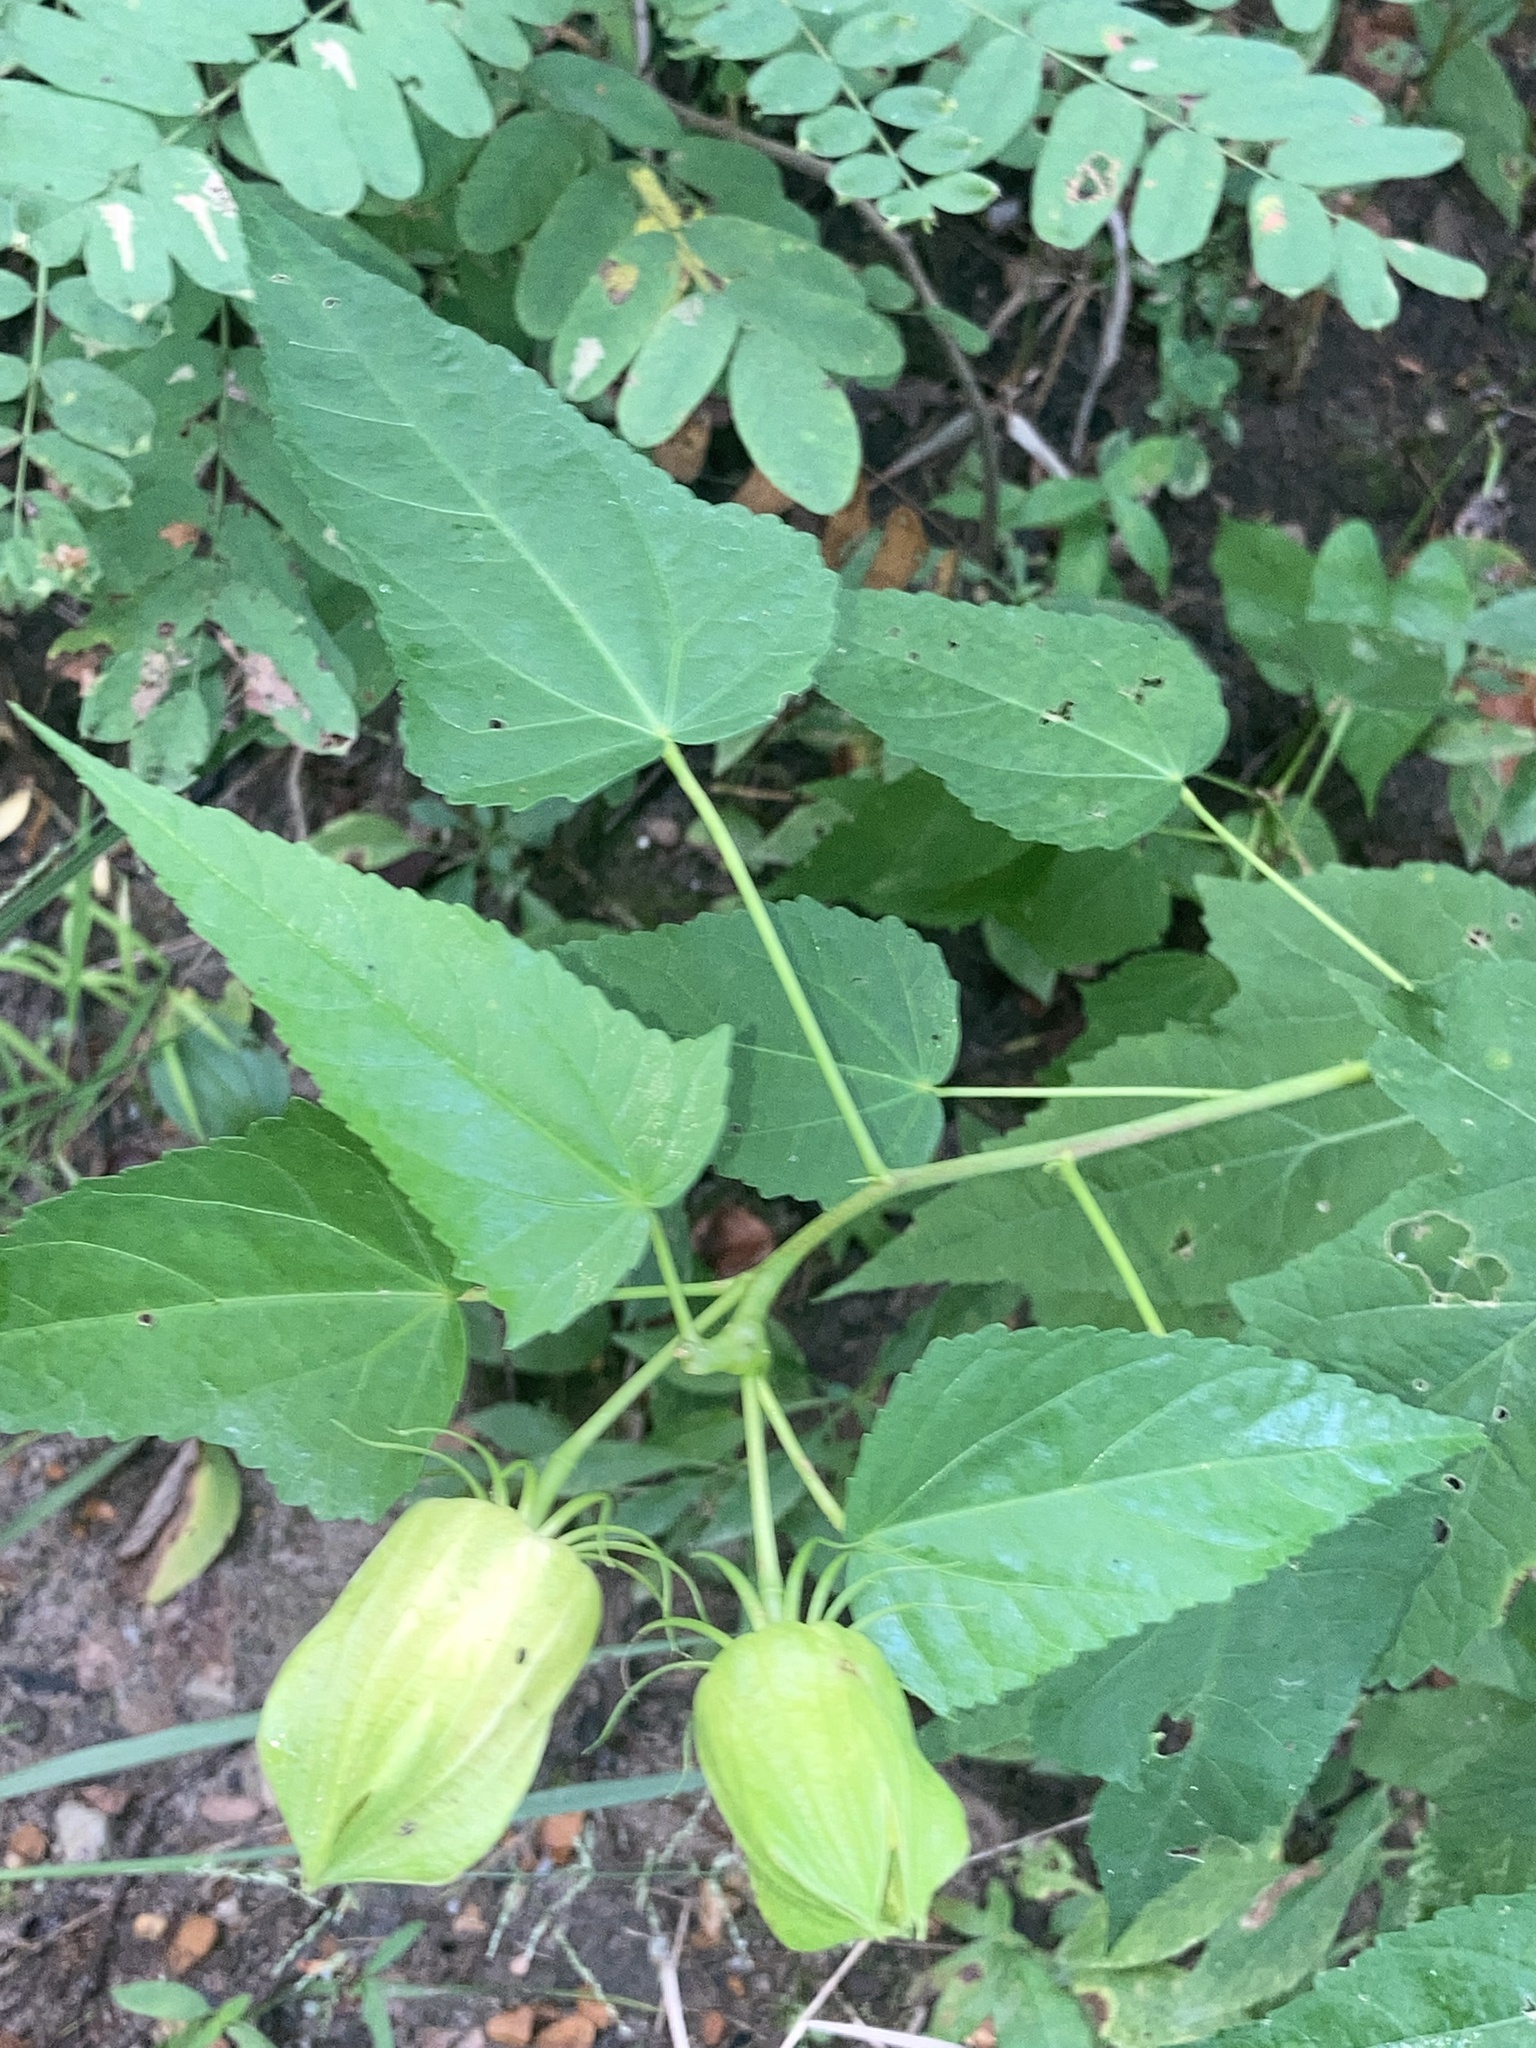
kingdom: Plantae
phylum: Tracheophyta
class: Magnoliopsida
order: Malvales
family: Malvaceae
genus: Hibiscus
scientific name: Hibiscus laevis
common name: Scarlet rose-mallow
